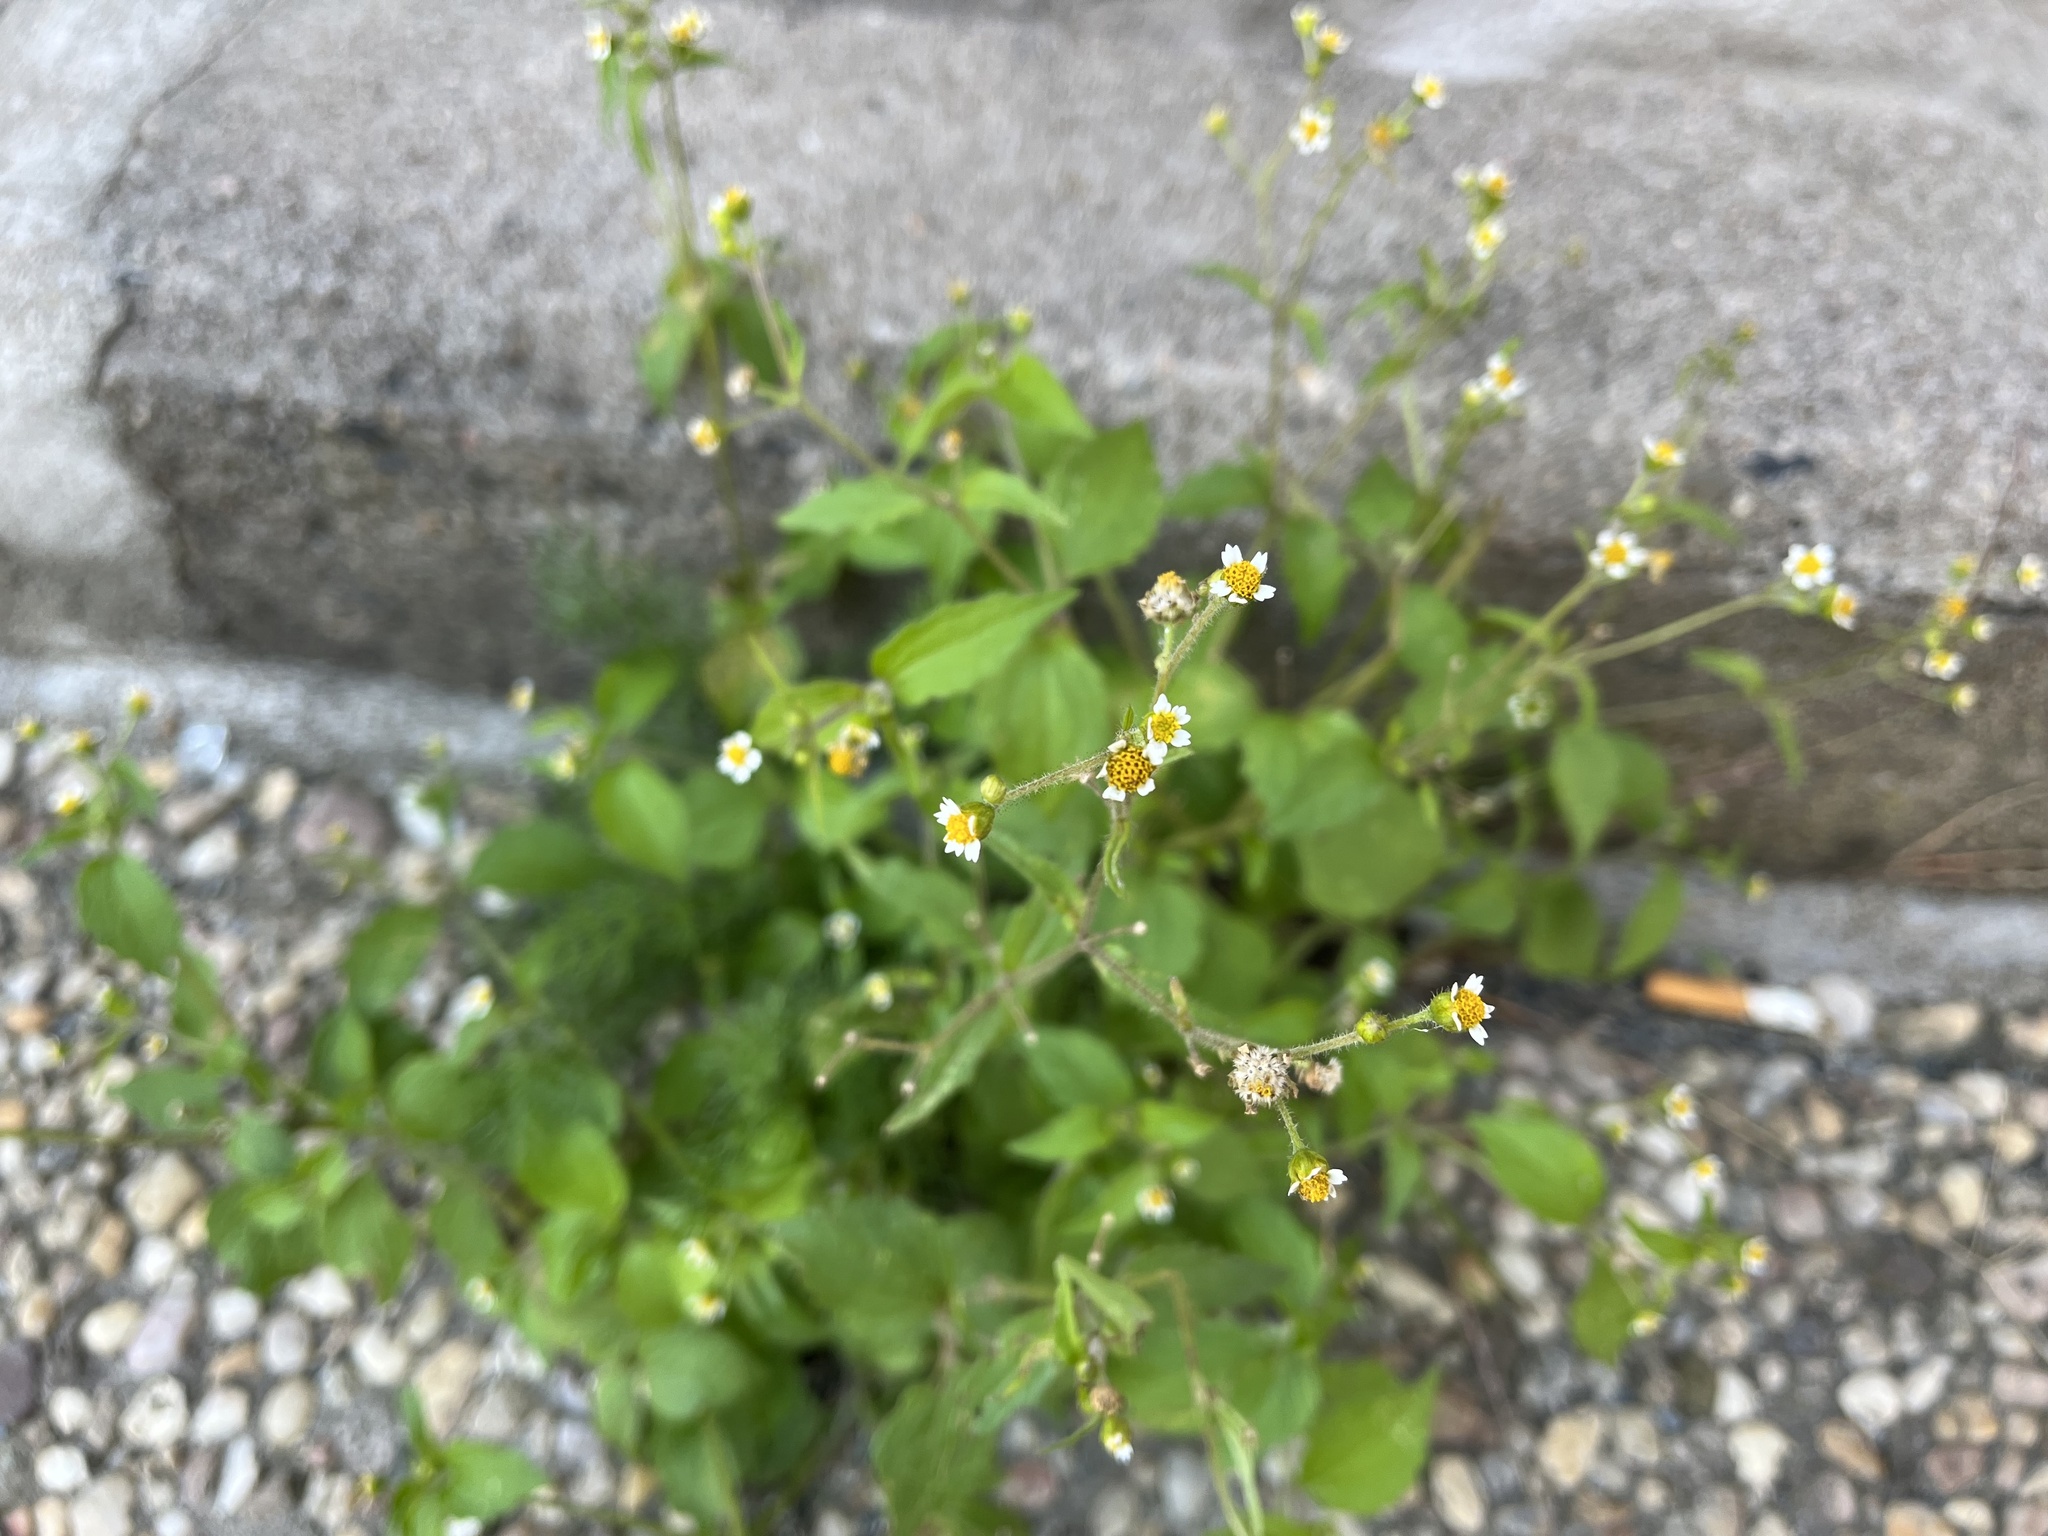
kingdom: Plantae
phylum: Tracheophyta
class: Magnoliopsida
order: Asterales
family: Asteraceae
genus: Galinsoga
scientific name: Galinsoga quadriradiata
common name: Shaggy soldier
